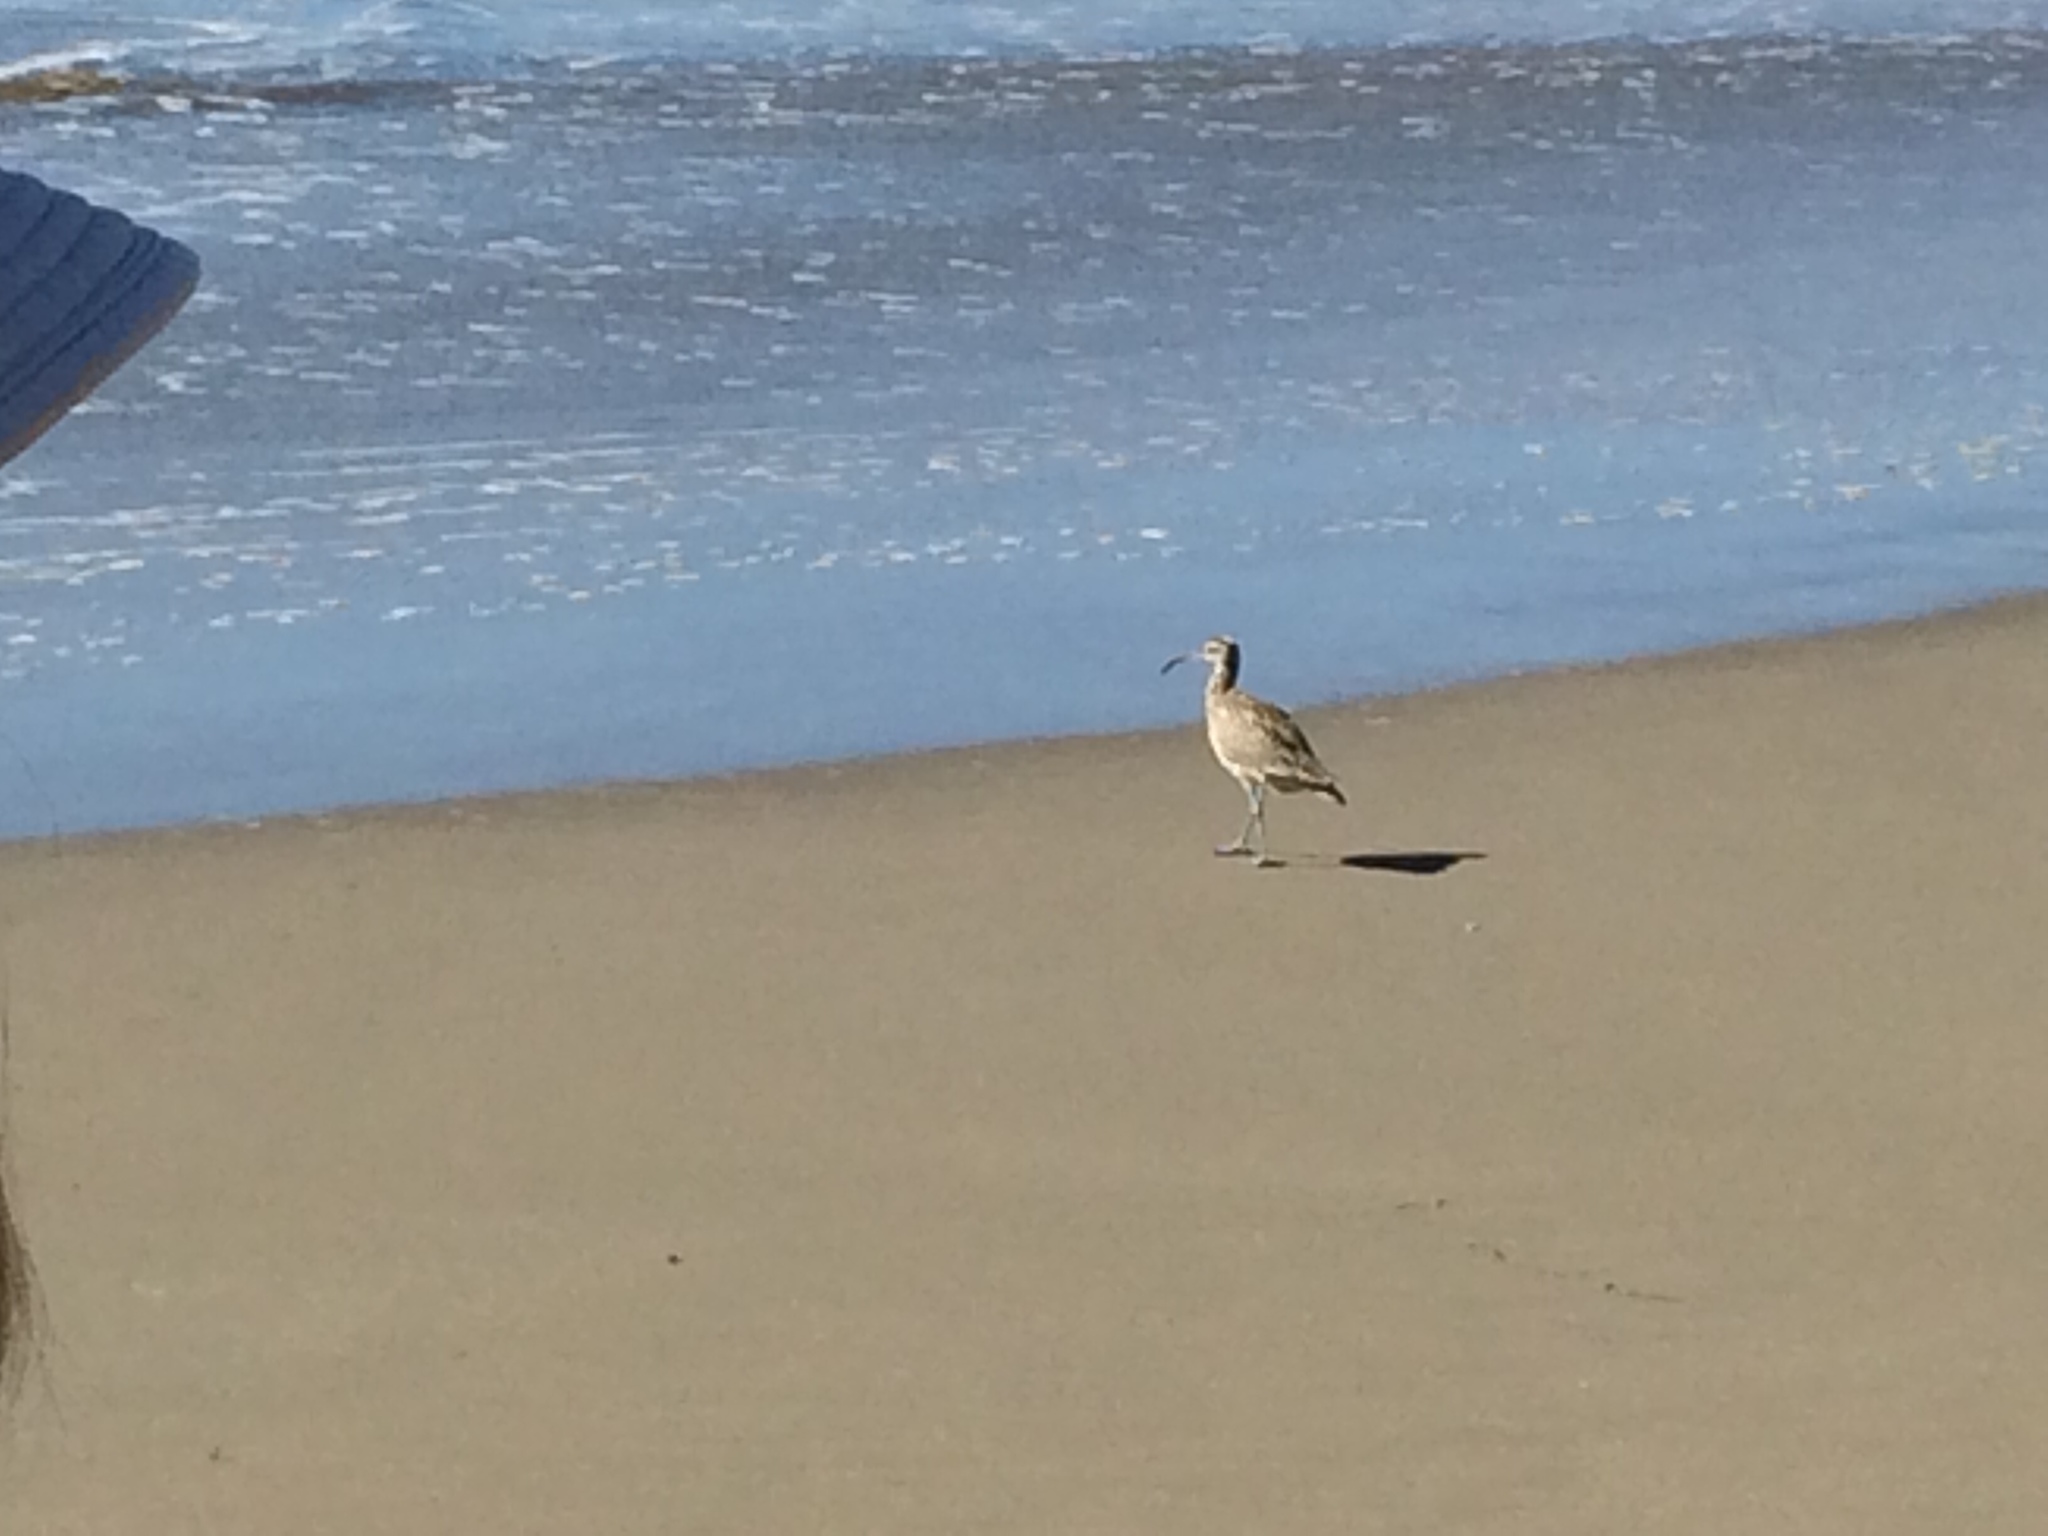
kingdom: Animalia
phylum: Chordata
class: Aves
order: Charadriiformes
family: Scolopacidae
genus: Numenius
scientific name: Numenius phaeopus
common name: Whimbrel
